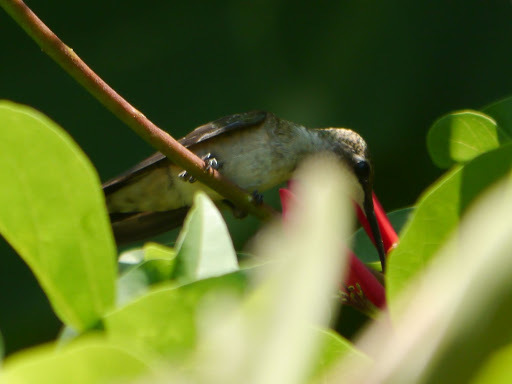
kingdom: Animalia
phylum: Chordata
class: Aves
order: Apodiformes
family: Trochilidae
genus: Archilochus
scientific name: Archilochus colubris
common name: Ruby-throated hummingbird
